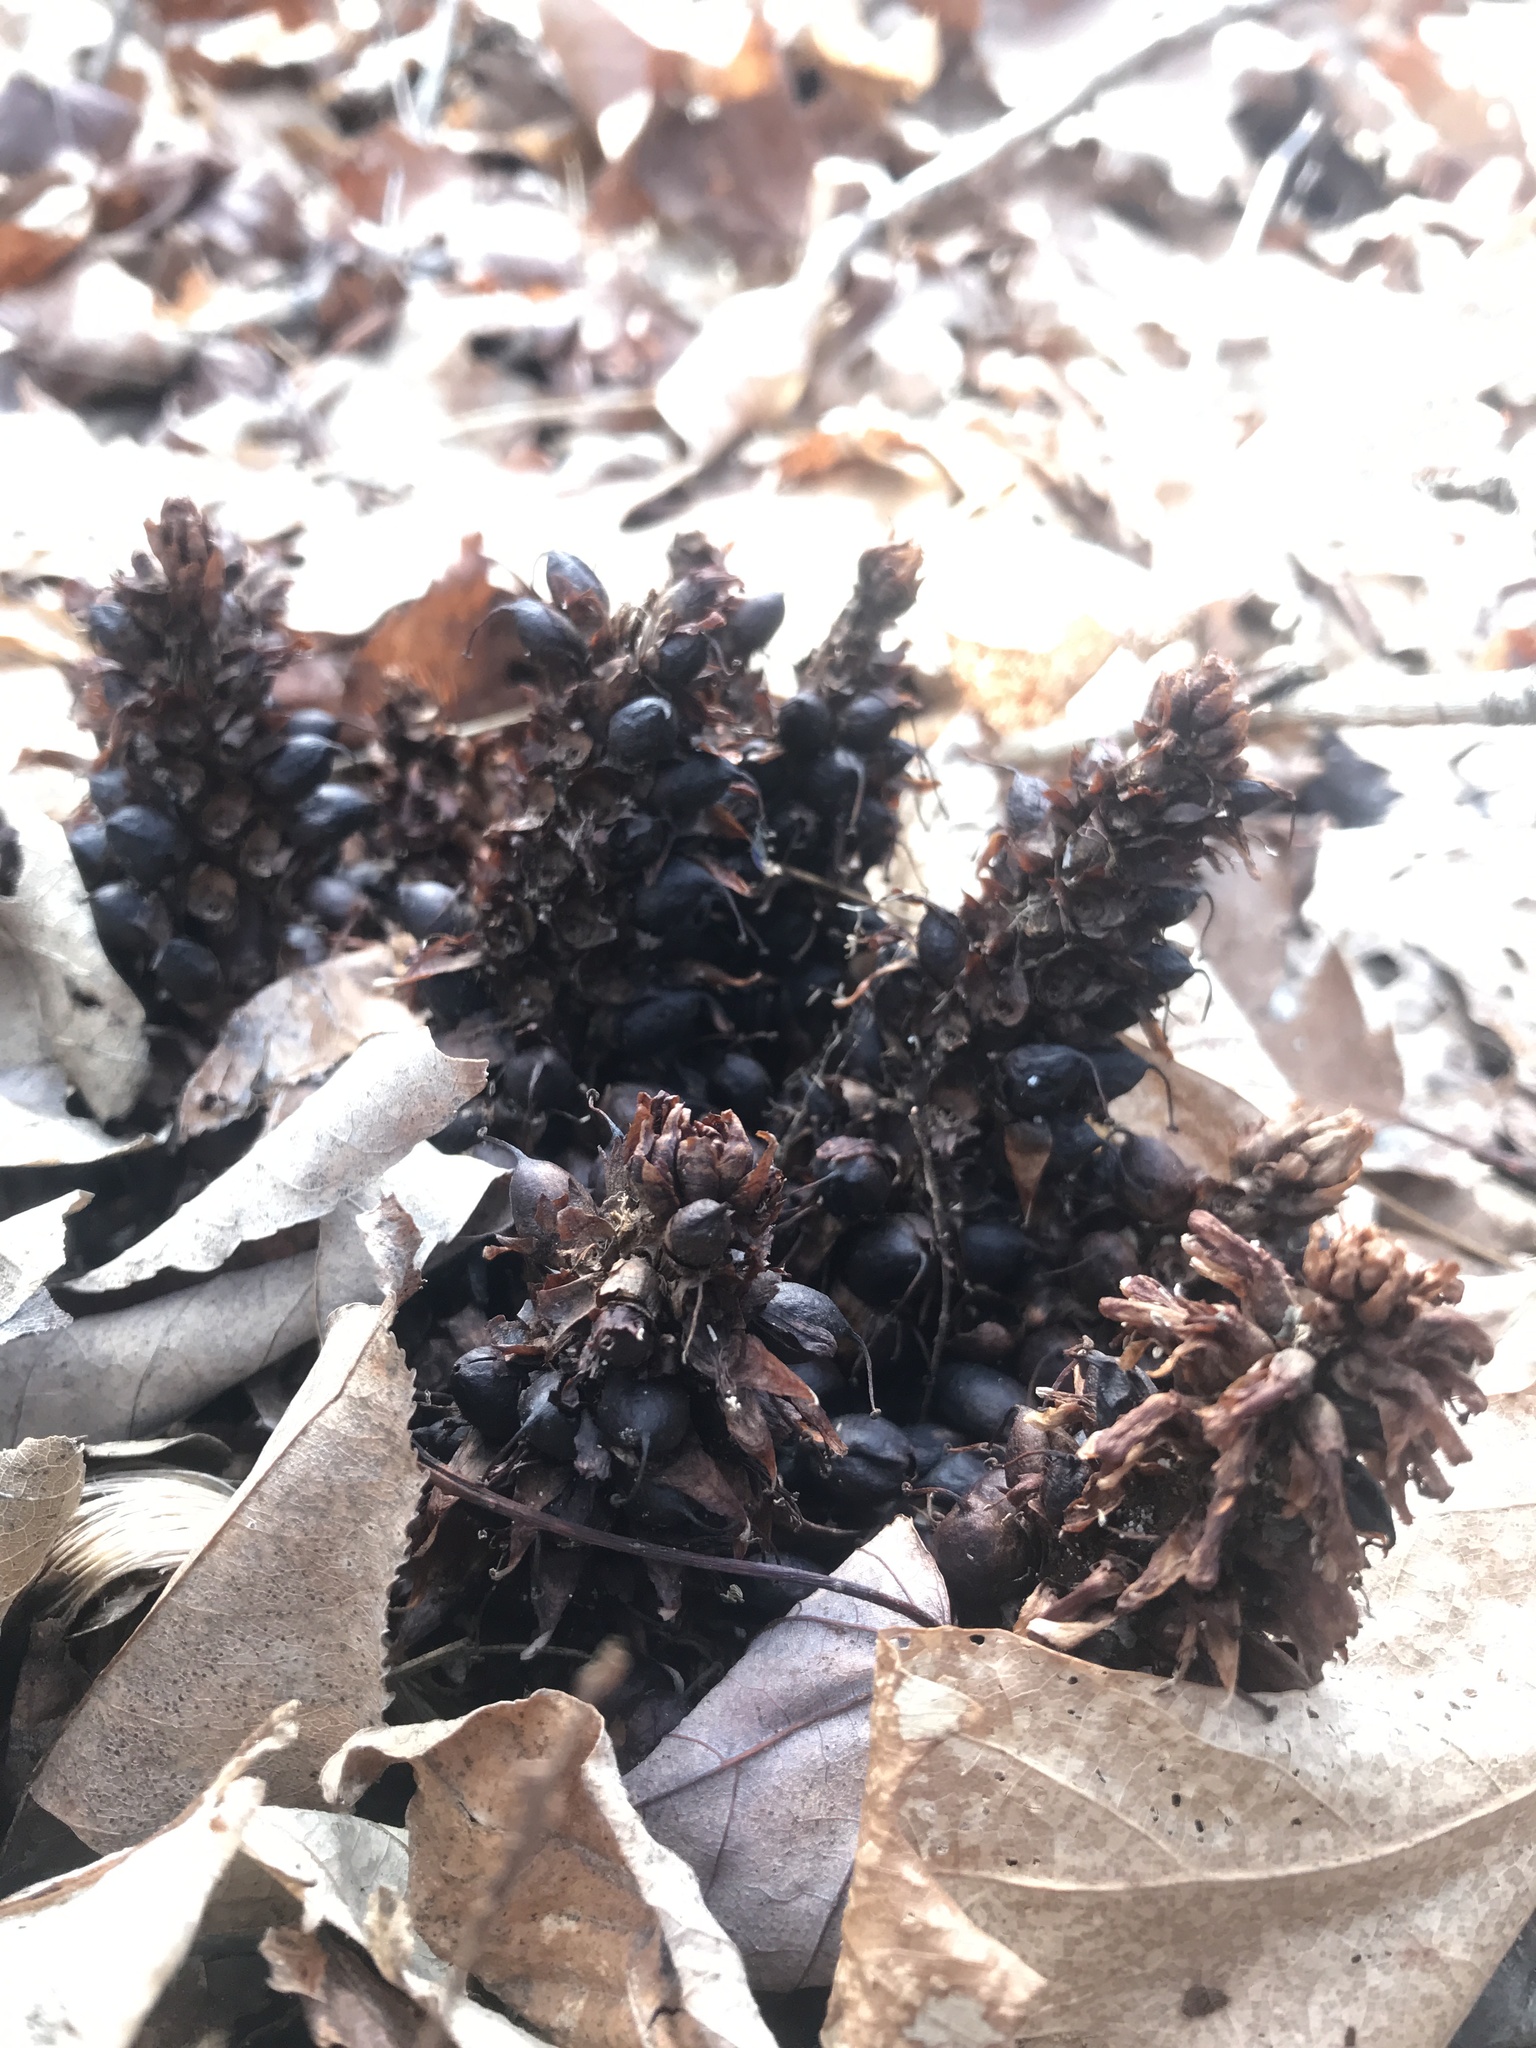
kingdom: Plantae
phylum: Tracheophyta
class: Magnoliopsida
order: Lamiales
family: Orobanchaceae
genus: Conopholis
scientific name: Conopholis americana
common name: American cancer-root
